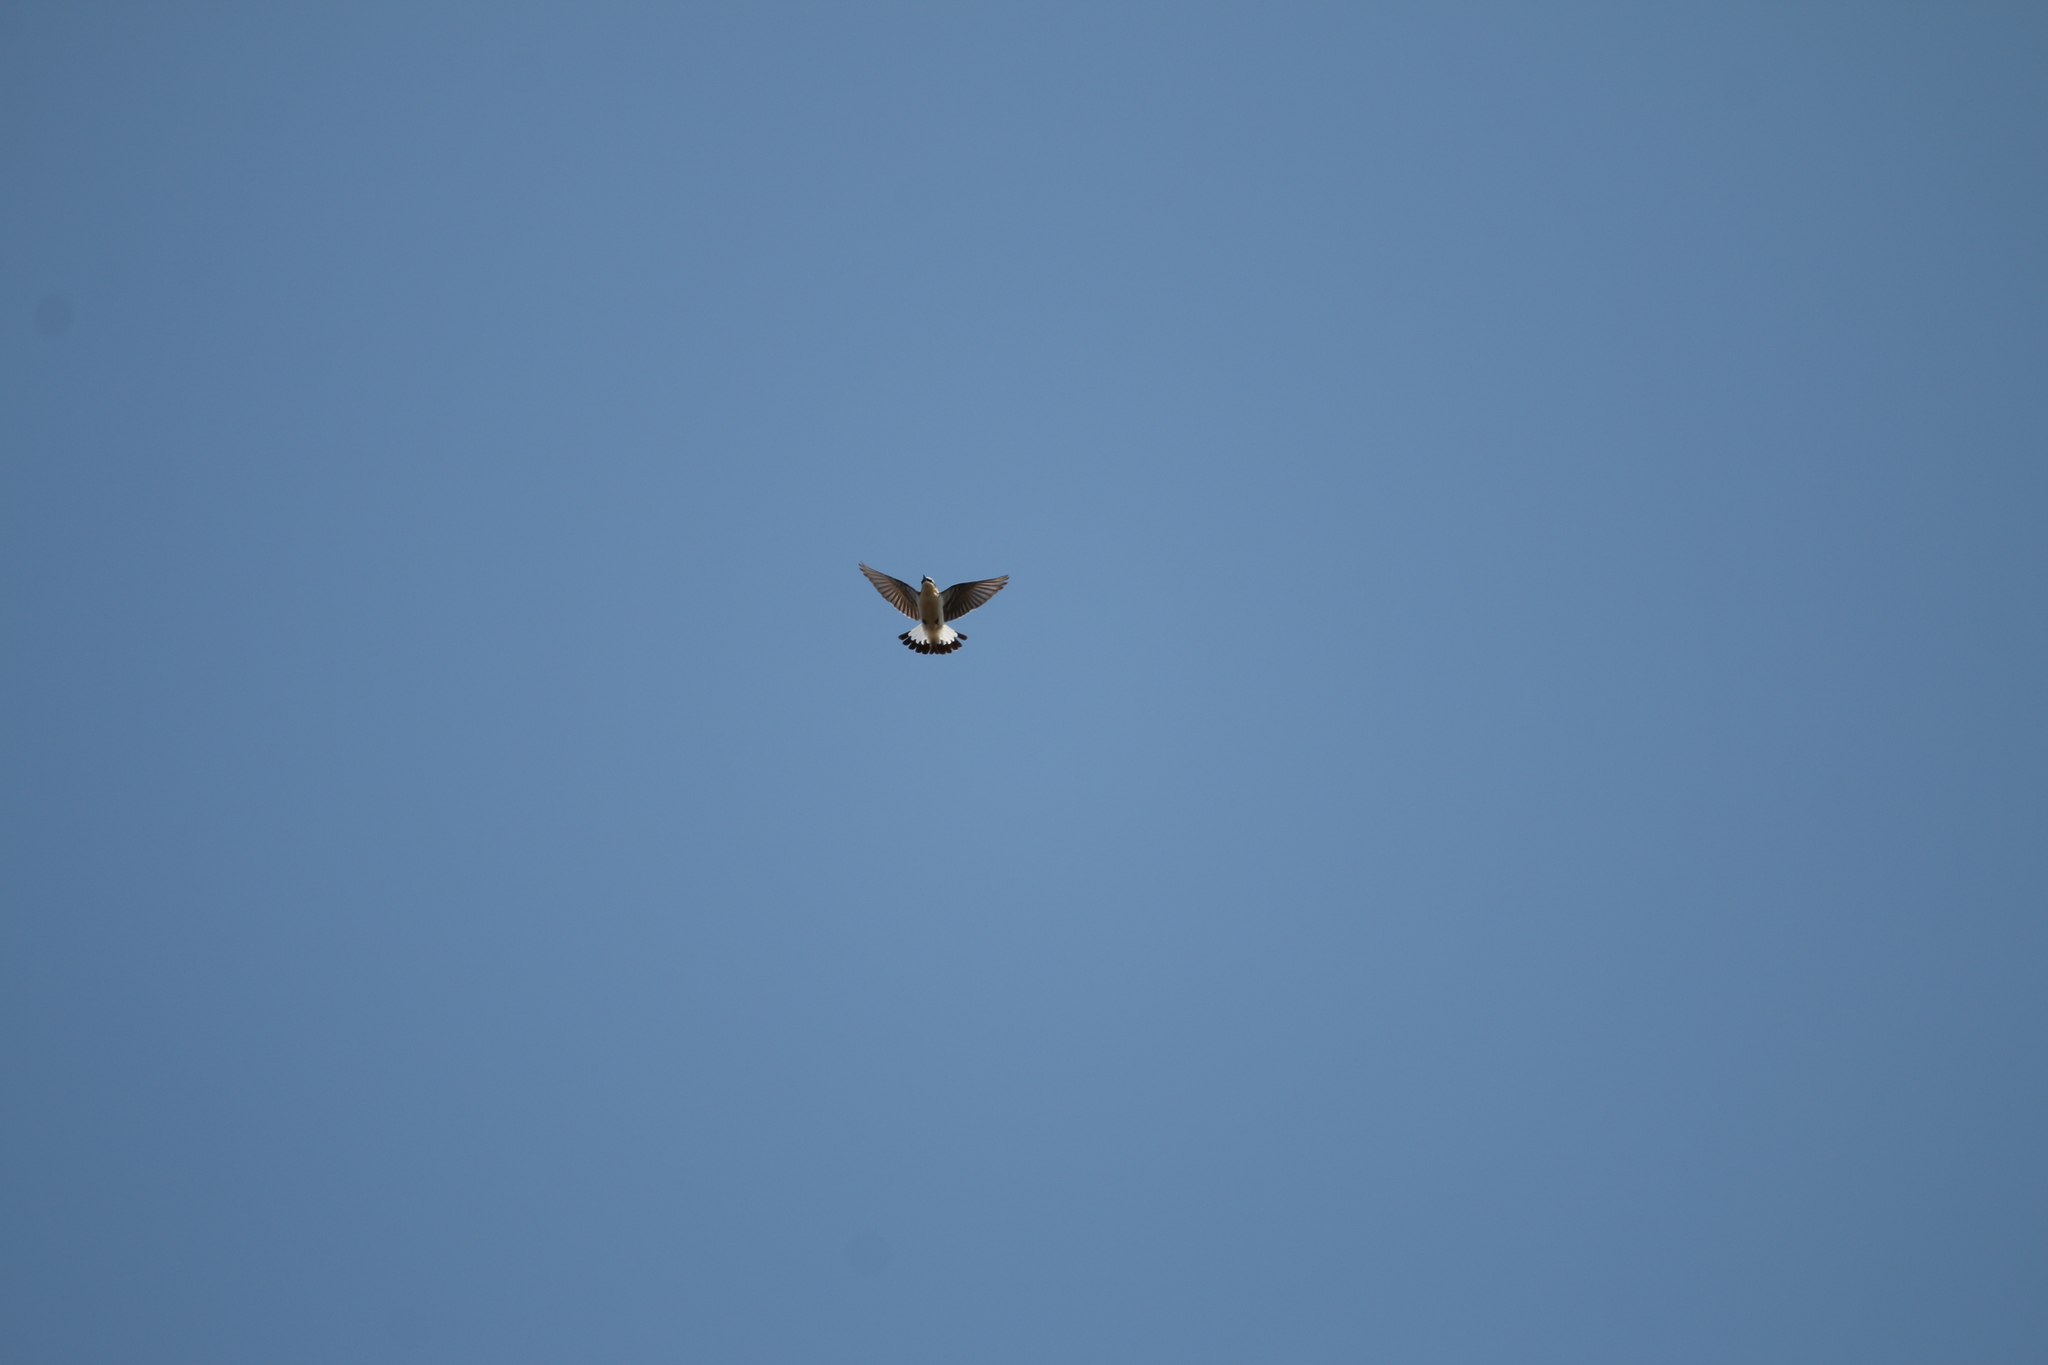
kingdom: Animalia
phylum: Chordata
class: Aves
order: Passeriformes
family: Muscicapidae
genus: Oenanthe
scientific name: Oenanthe oenanthe
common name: Northern wheatear
